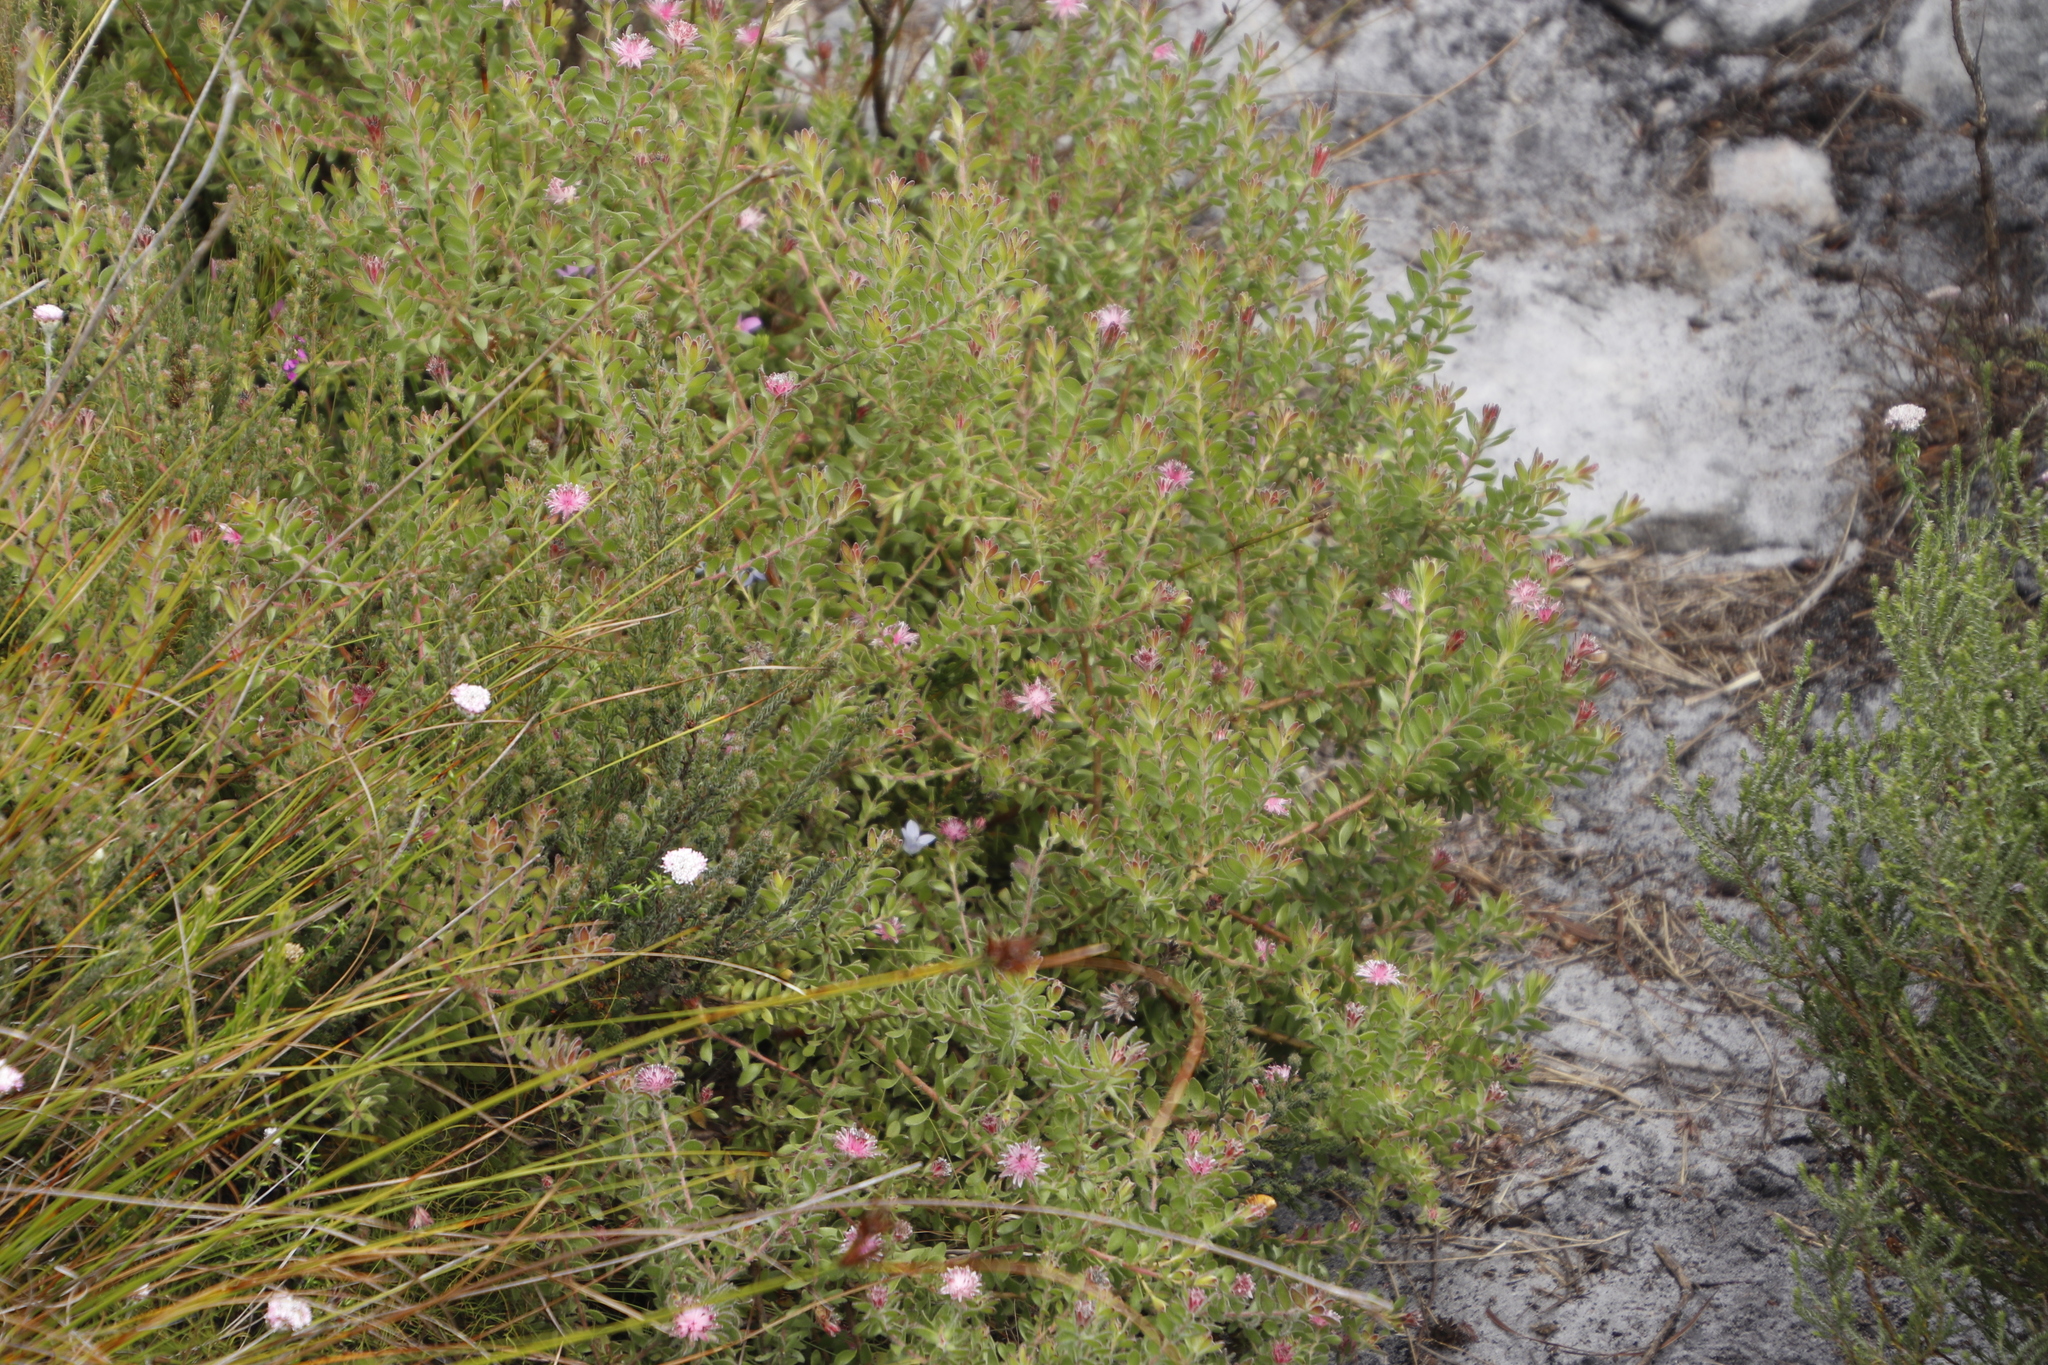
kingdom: Plantae
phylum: Tracheophyta
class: Magnoliopsida
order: Proteales
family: Proteaceae
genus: Diastella
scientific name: Diastella divaricata
